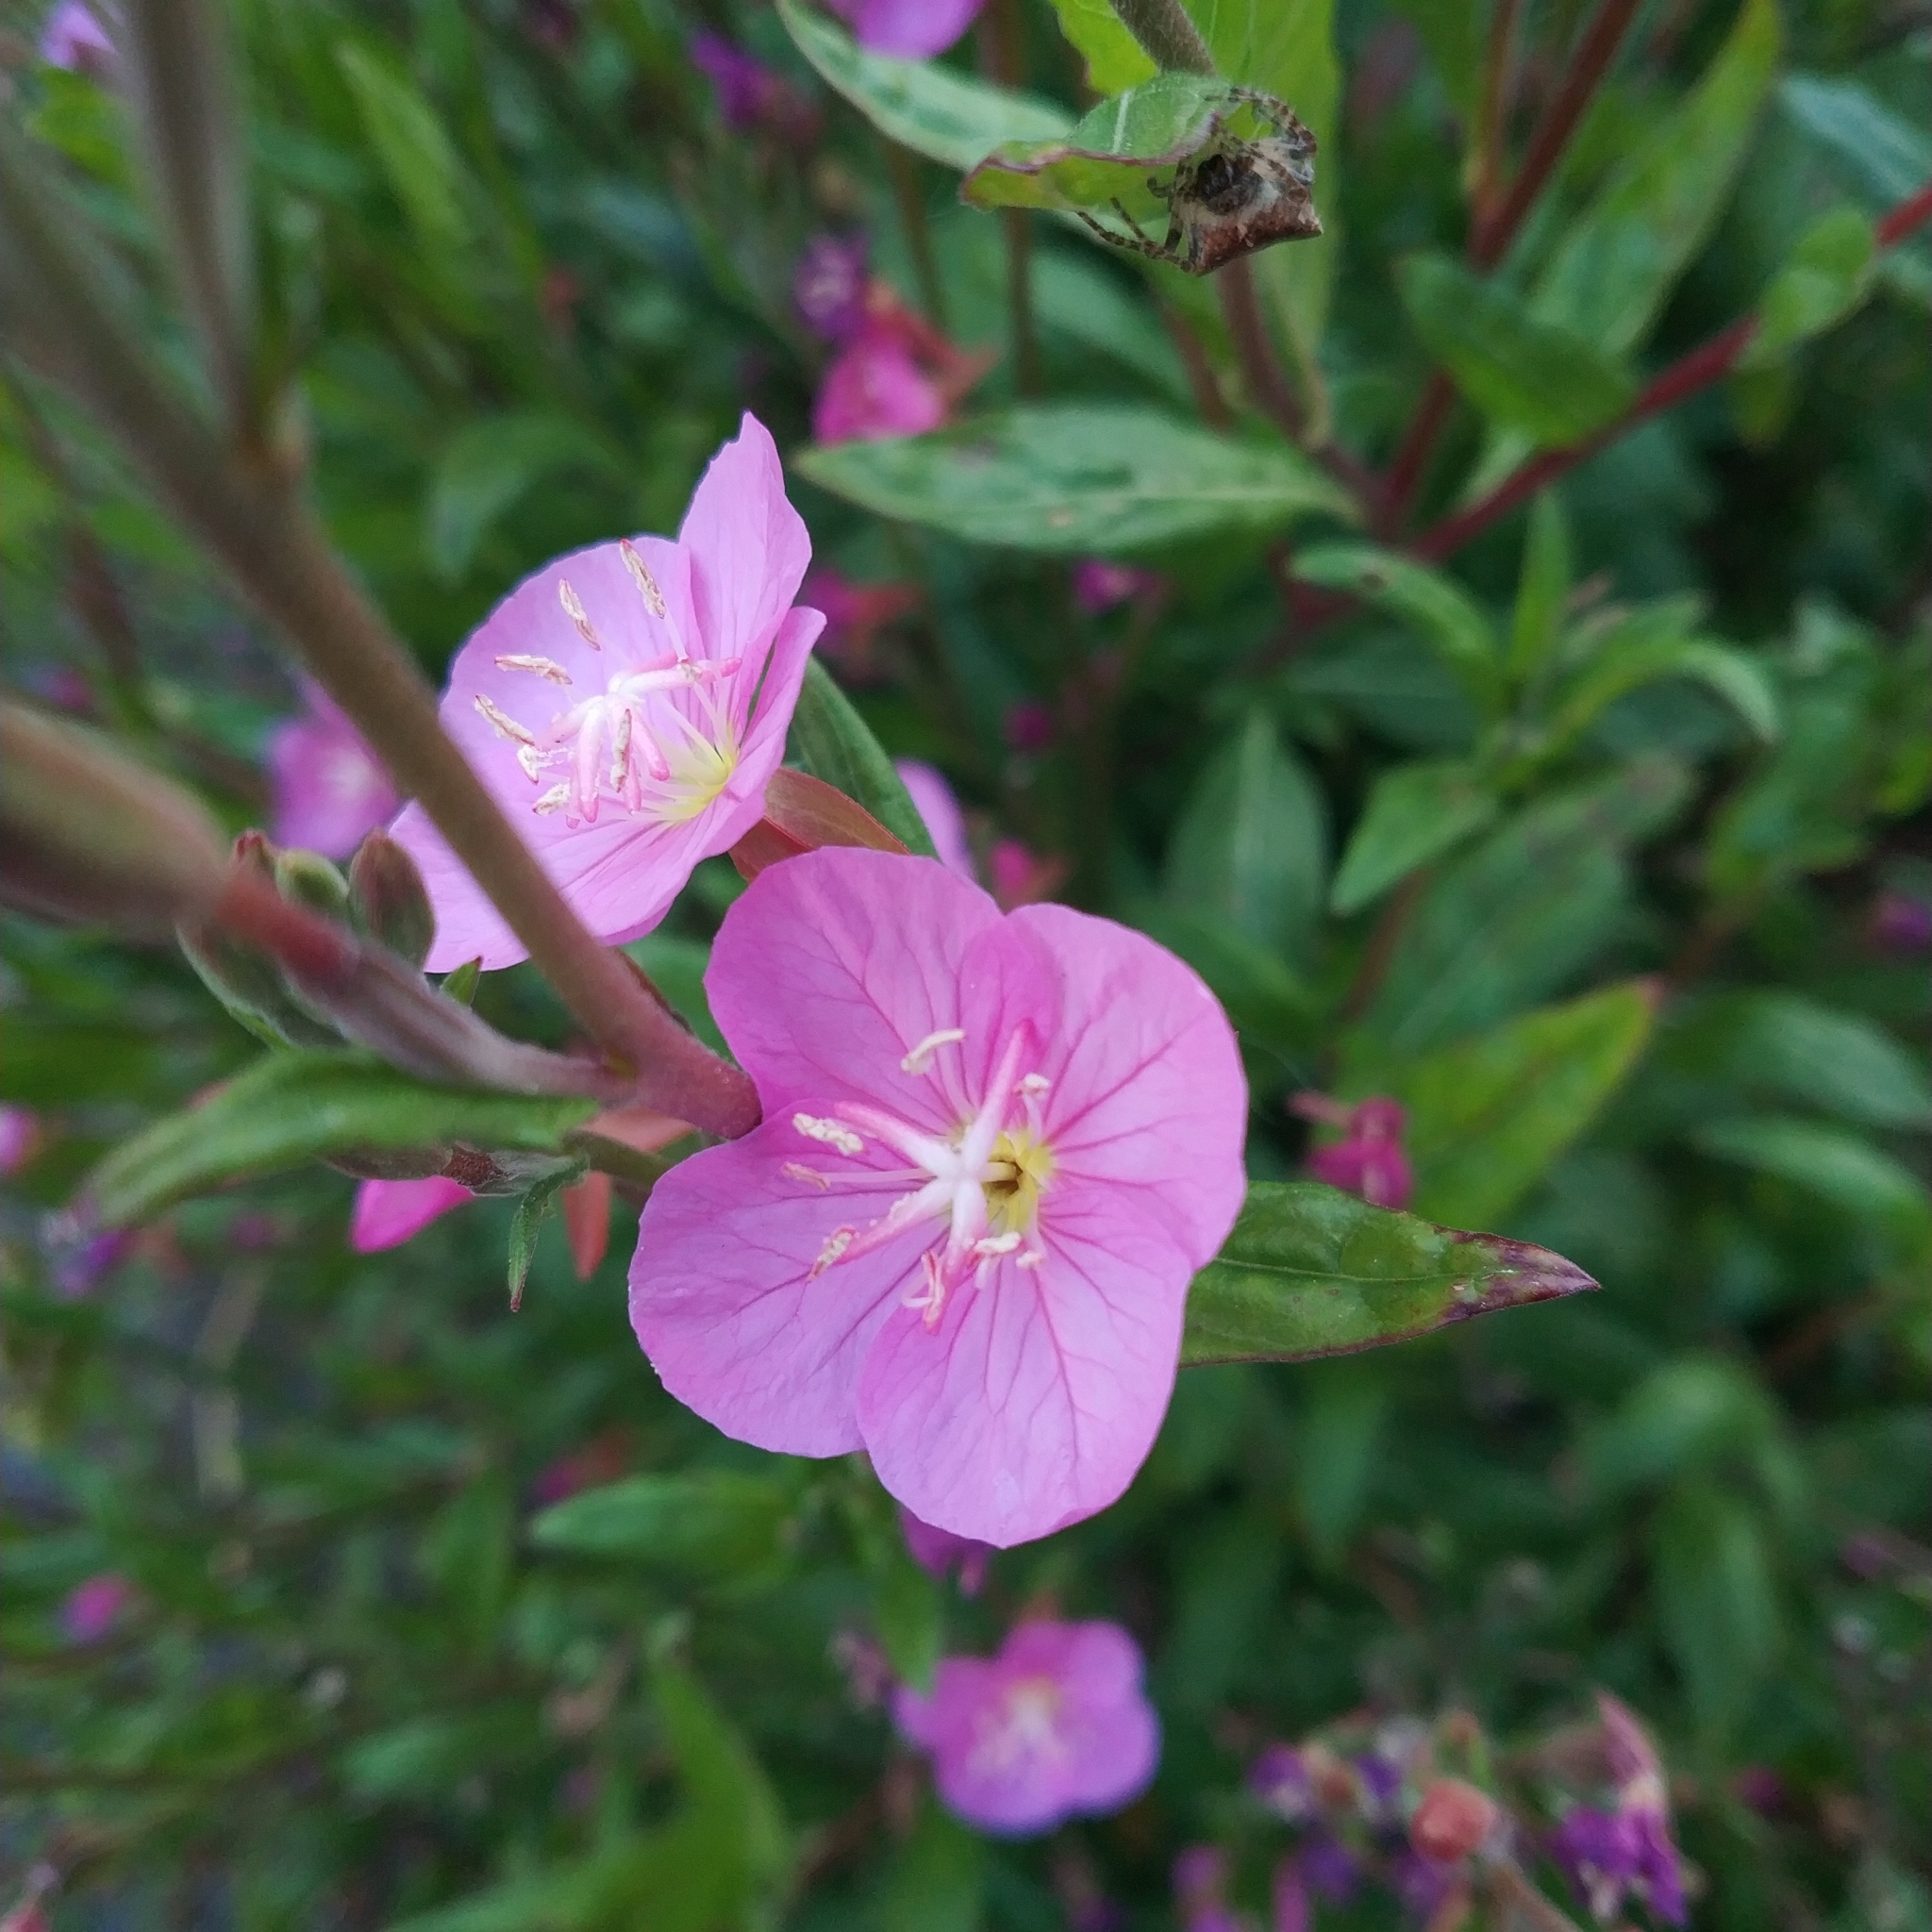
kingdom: Plantae
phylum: Tracheophyta
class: Magnoliopsida
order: Myrtales
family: Onagraceae
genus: Oenothera
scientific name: Oenothera rosea
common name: Rosy evening-primrose
